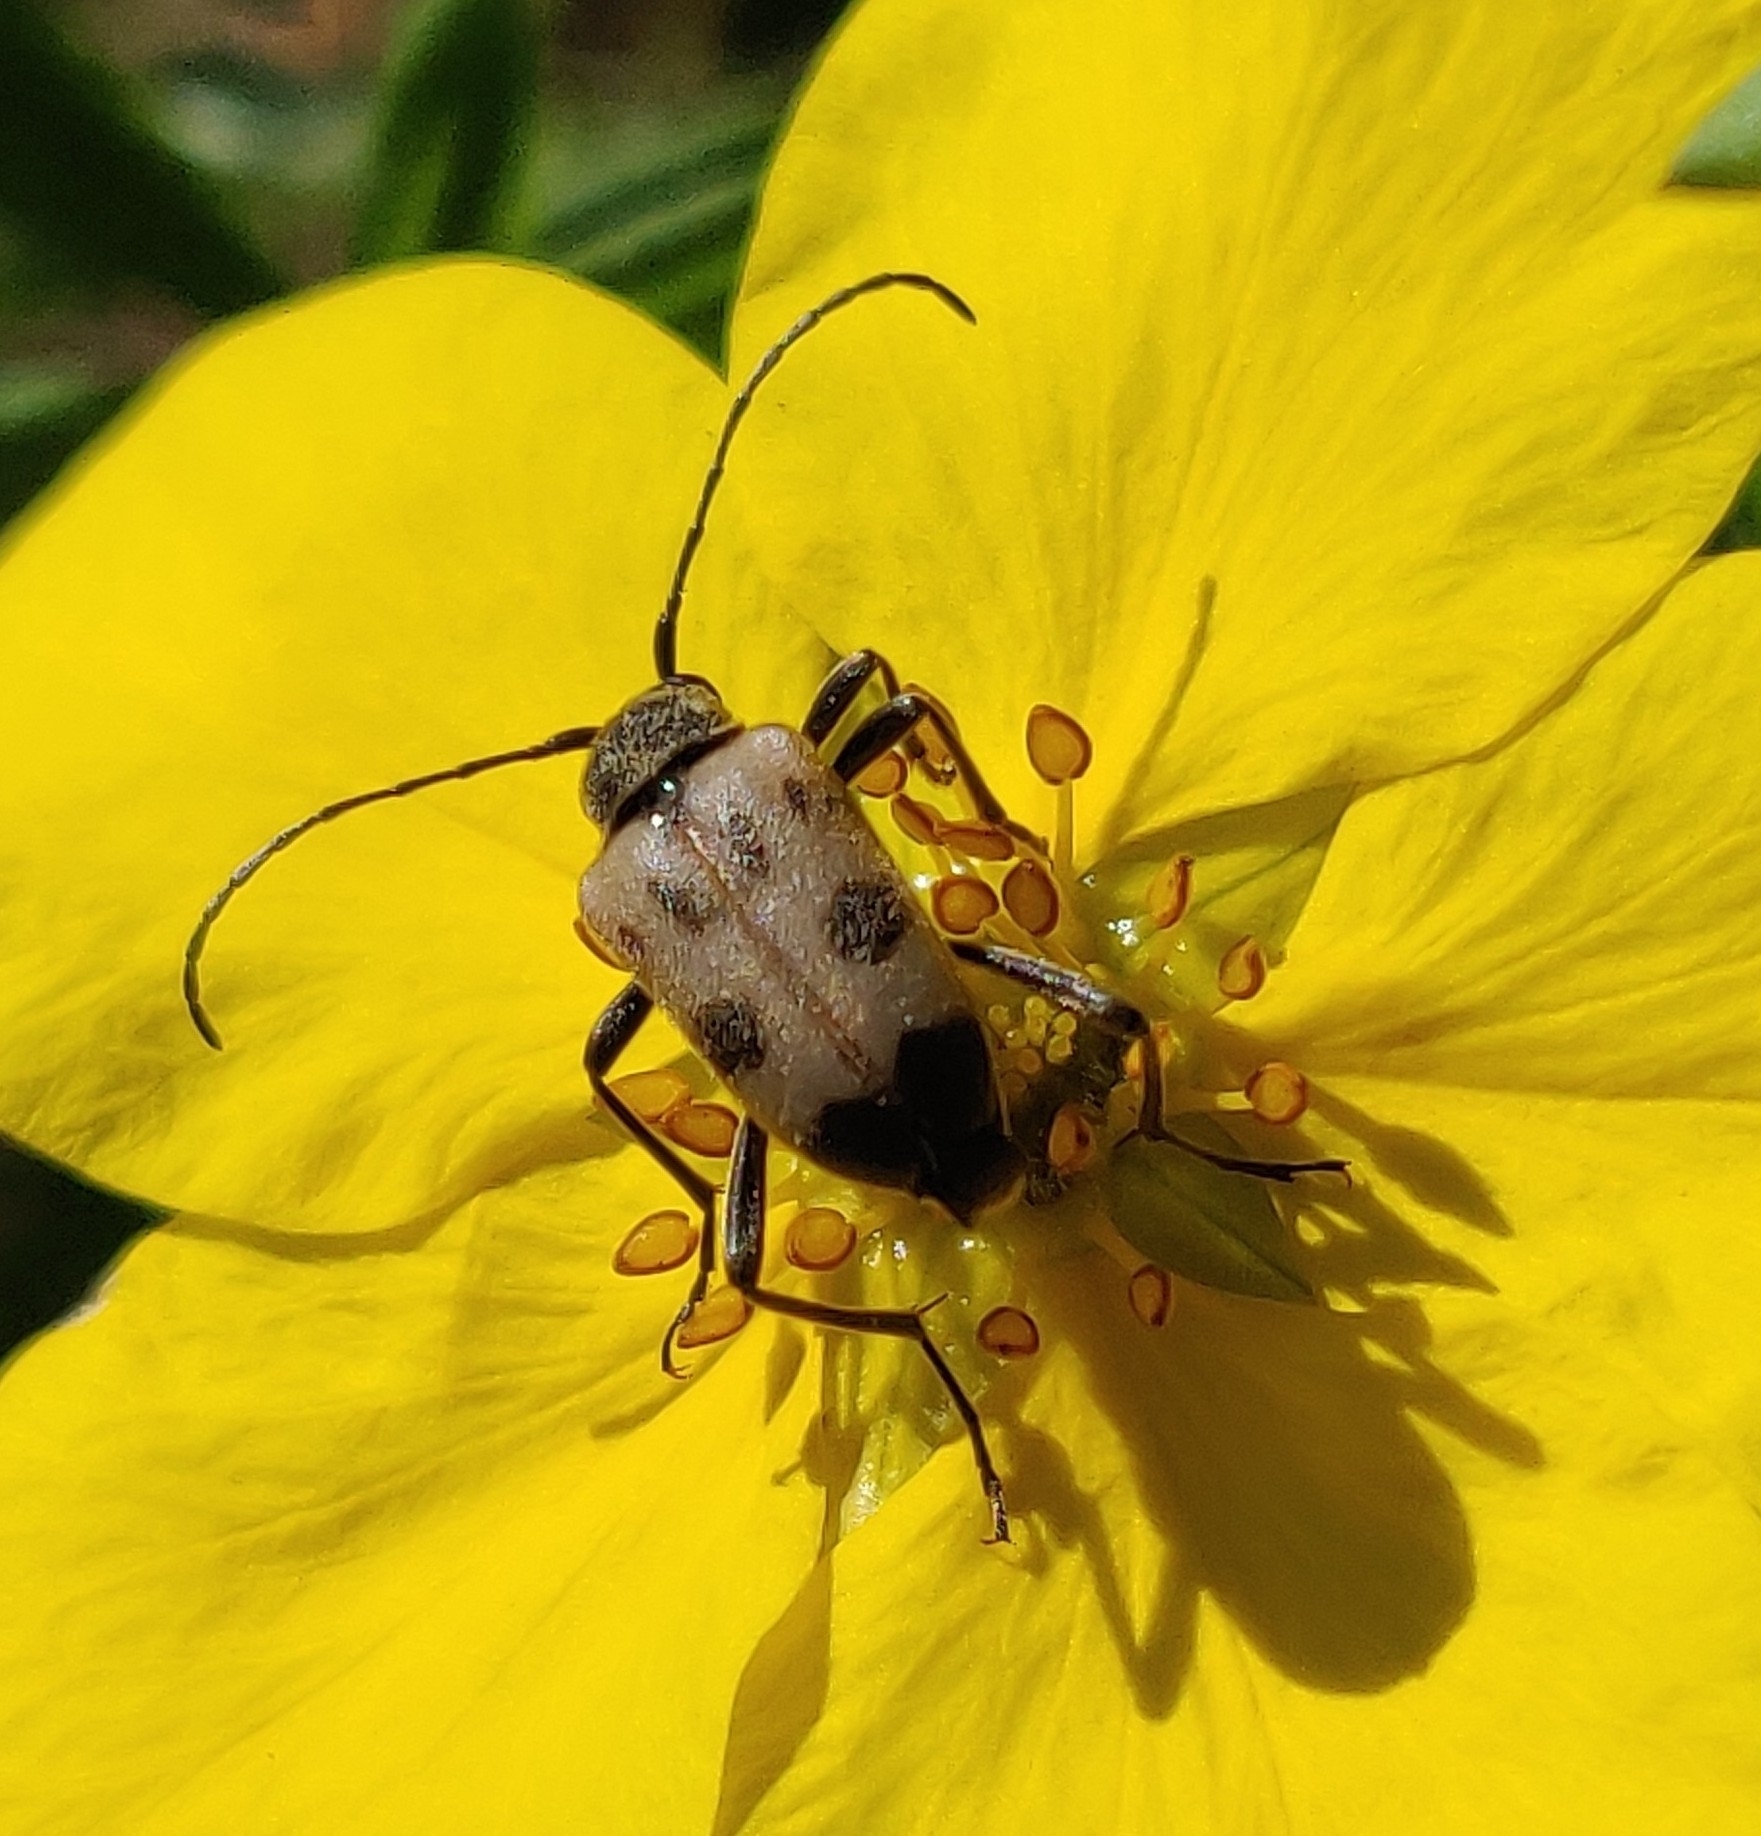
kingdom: Animalia
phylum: Arthropoda
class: Insecta
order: Coleoptera
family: Cerambycidae
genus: Pachytodes
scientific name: Pachytodes cerambyciformis
